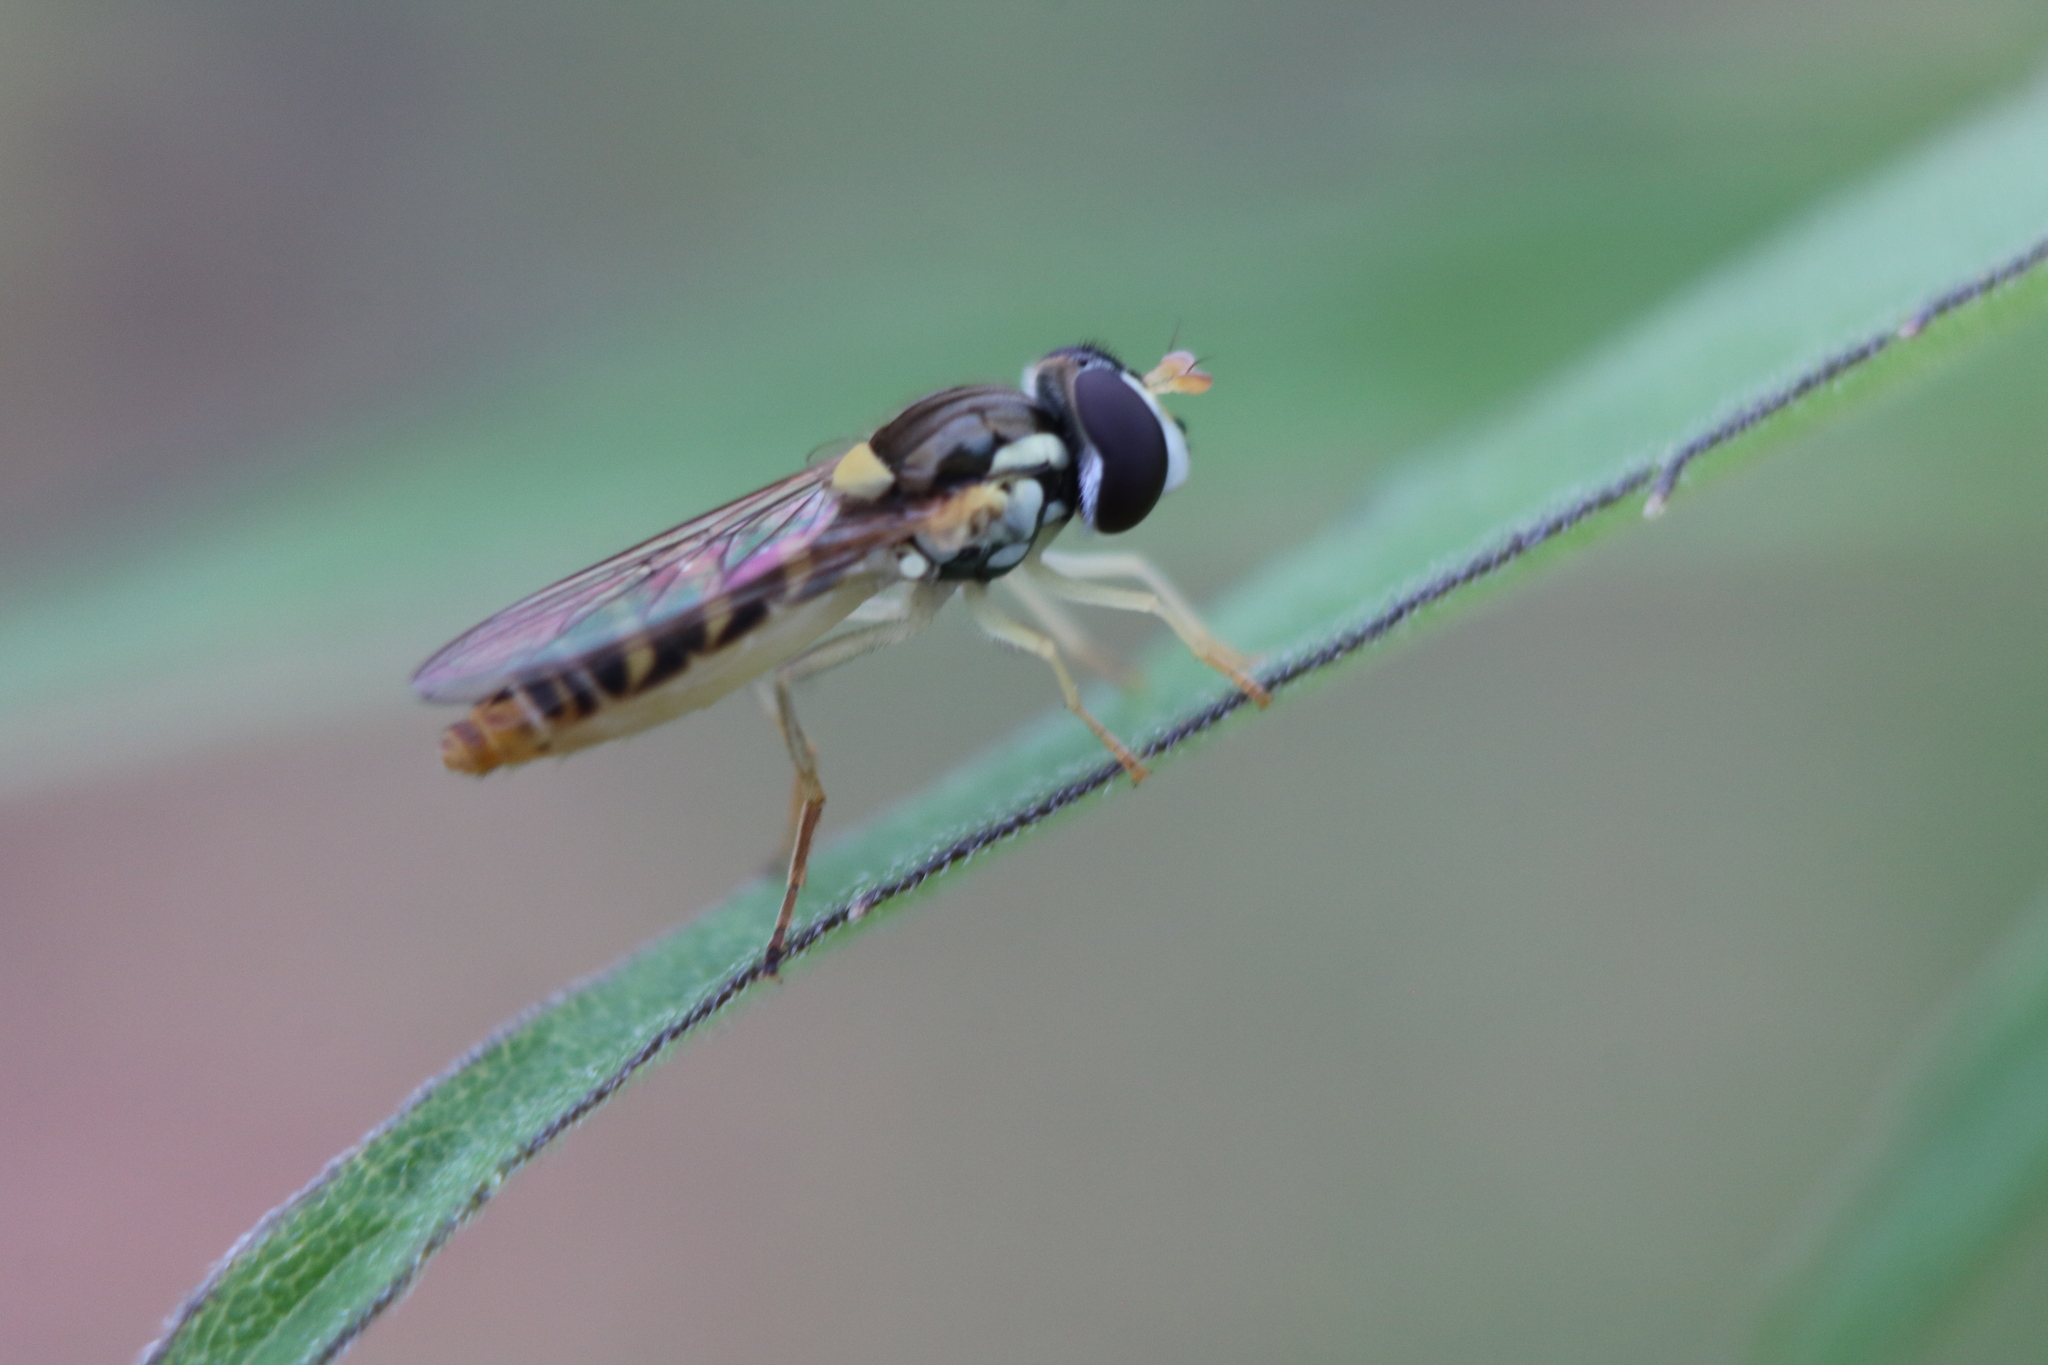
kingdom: Animalia
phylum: Arthropoda
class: Insecta
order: Diptera
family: Syrphidae
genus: Sphaerophoria
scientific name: Sphaerophoria contigua
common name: Tufted globetail
